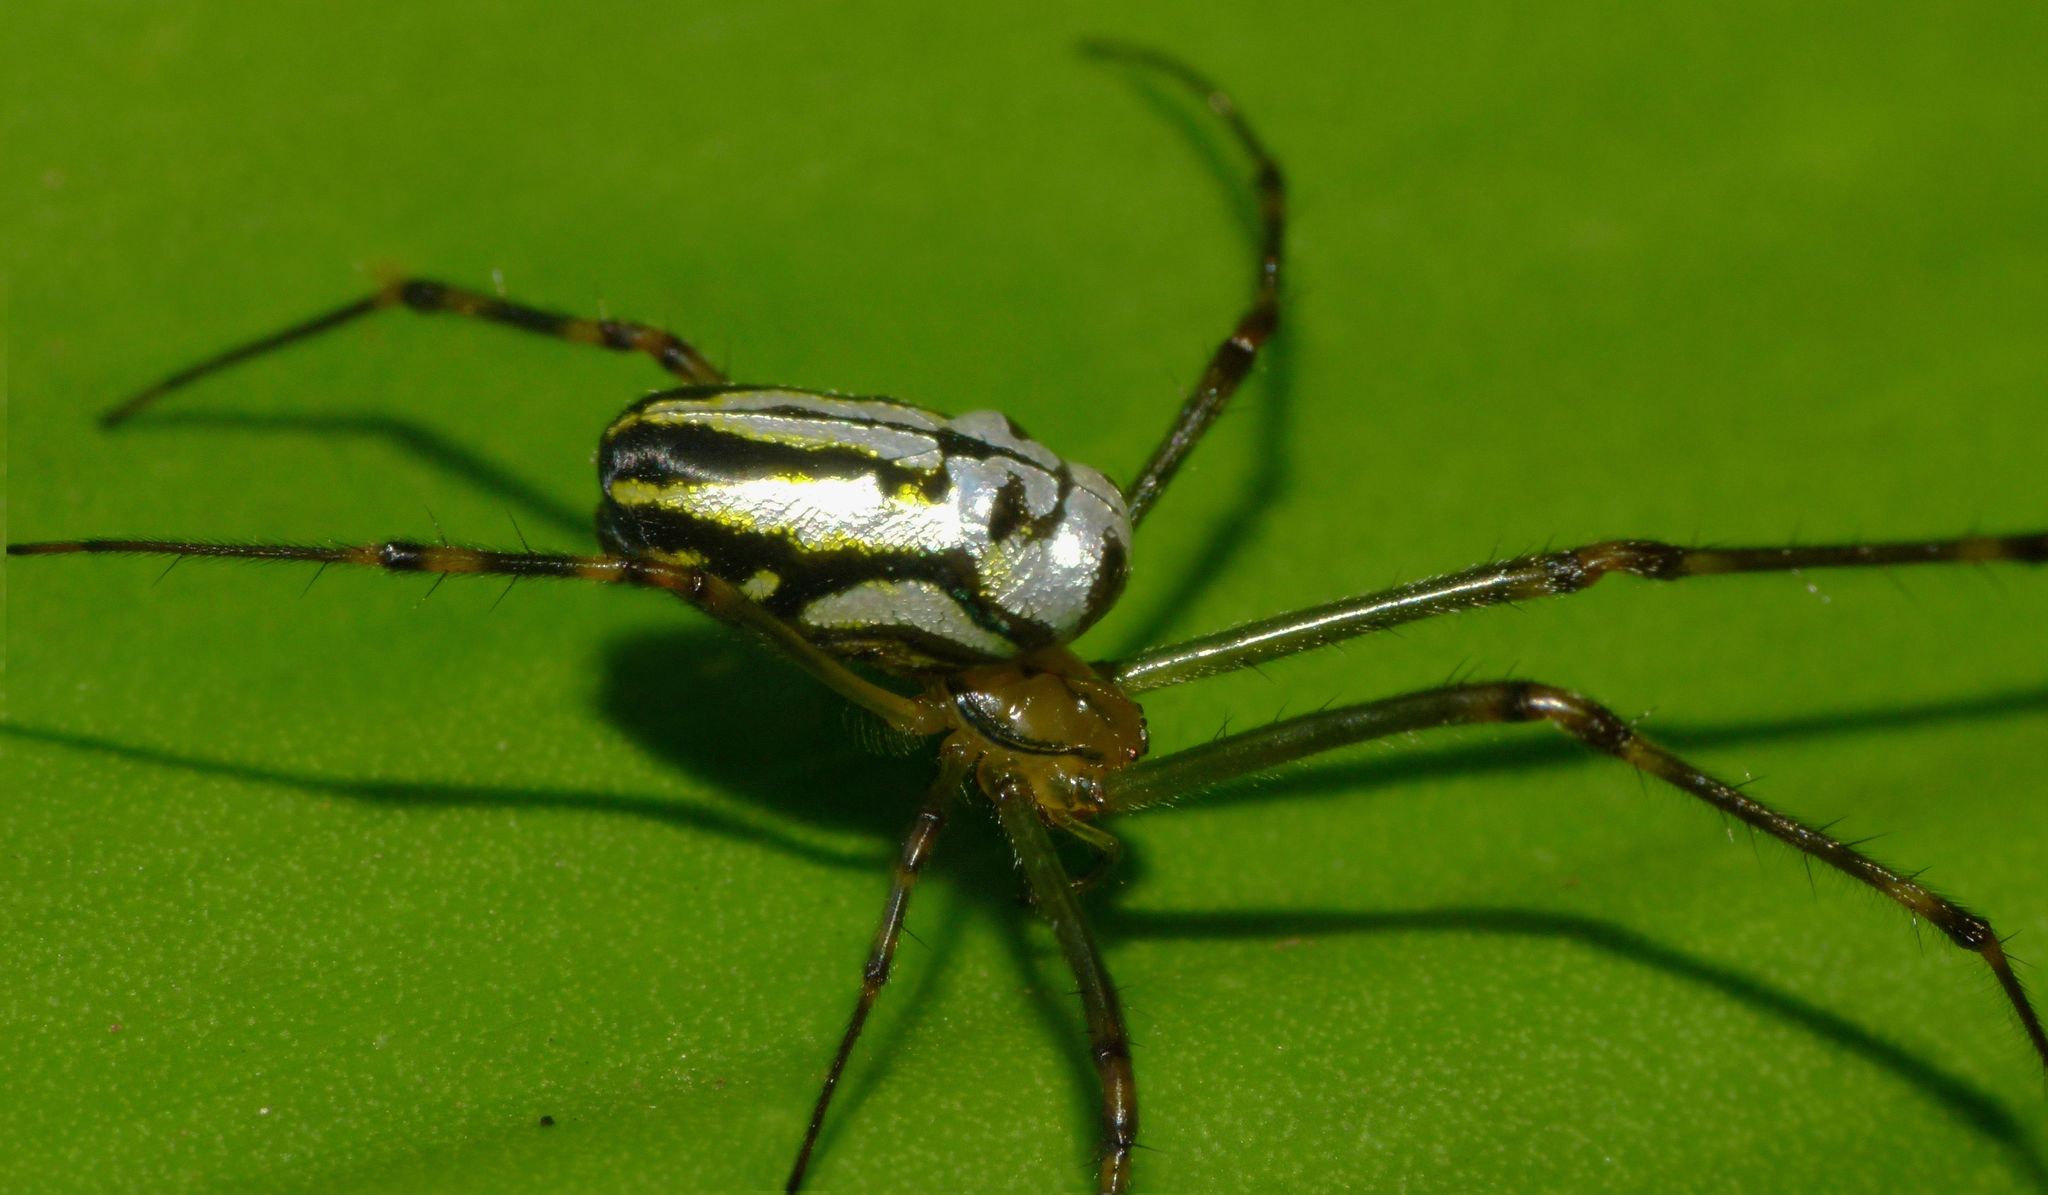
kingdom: Animalia
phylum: Arthropoda
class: Arachnida
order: Araneae
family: Tetragnathidae
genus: Leucauge
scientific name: Leucauge dromedaria
